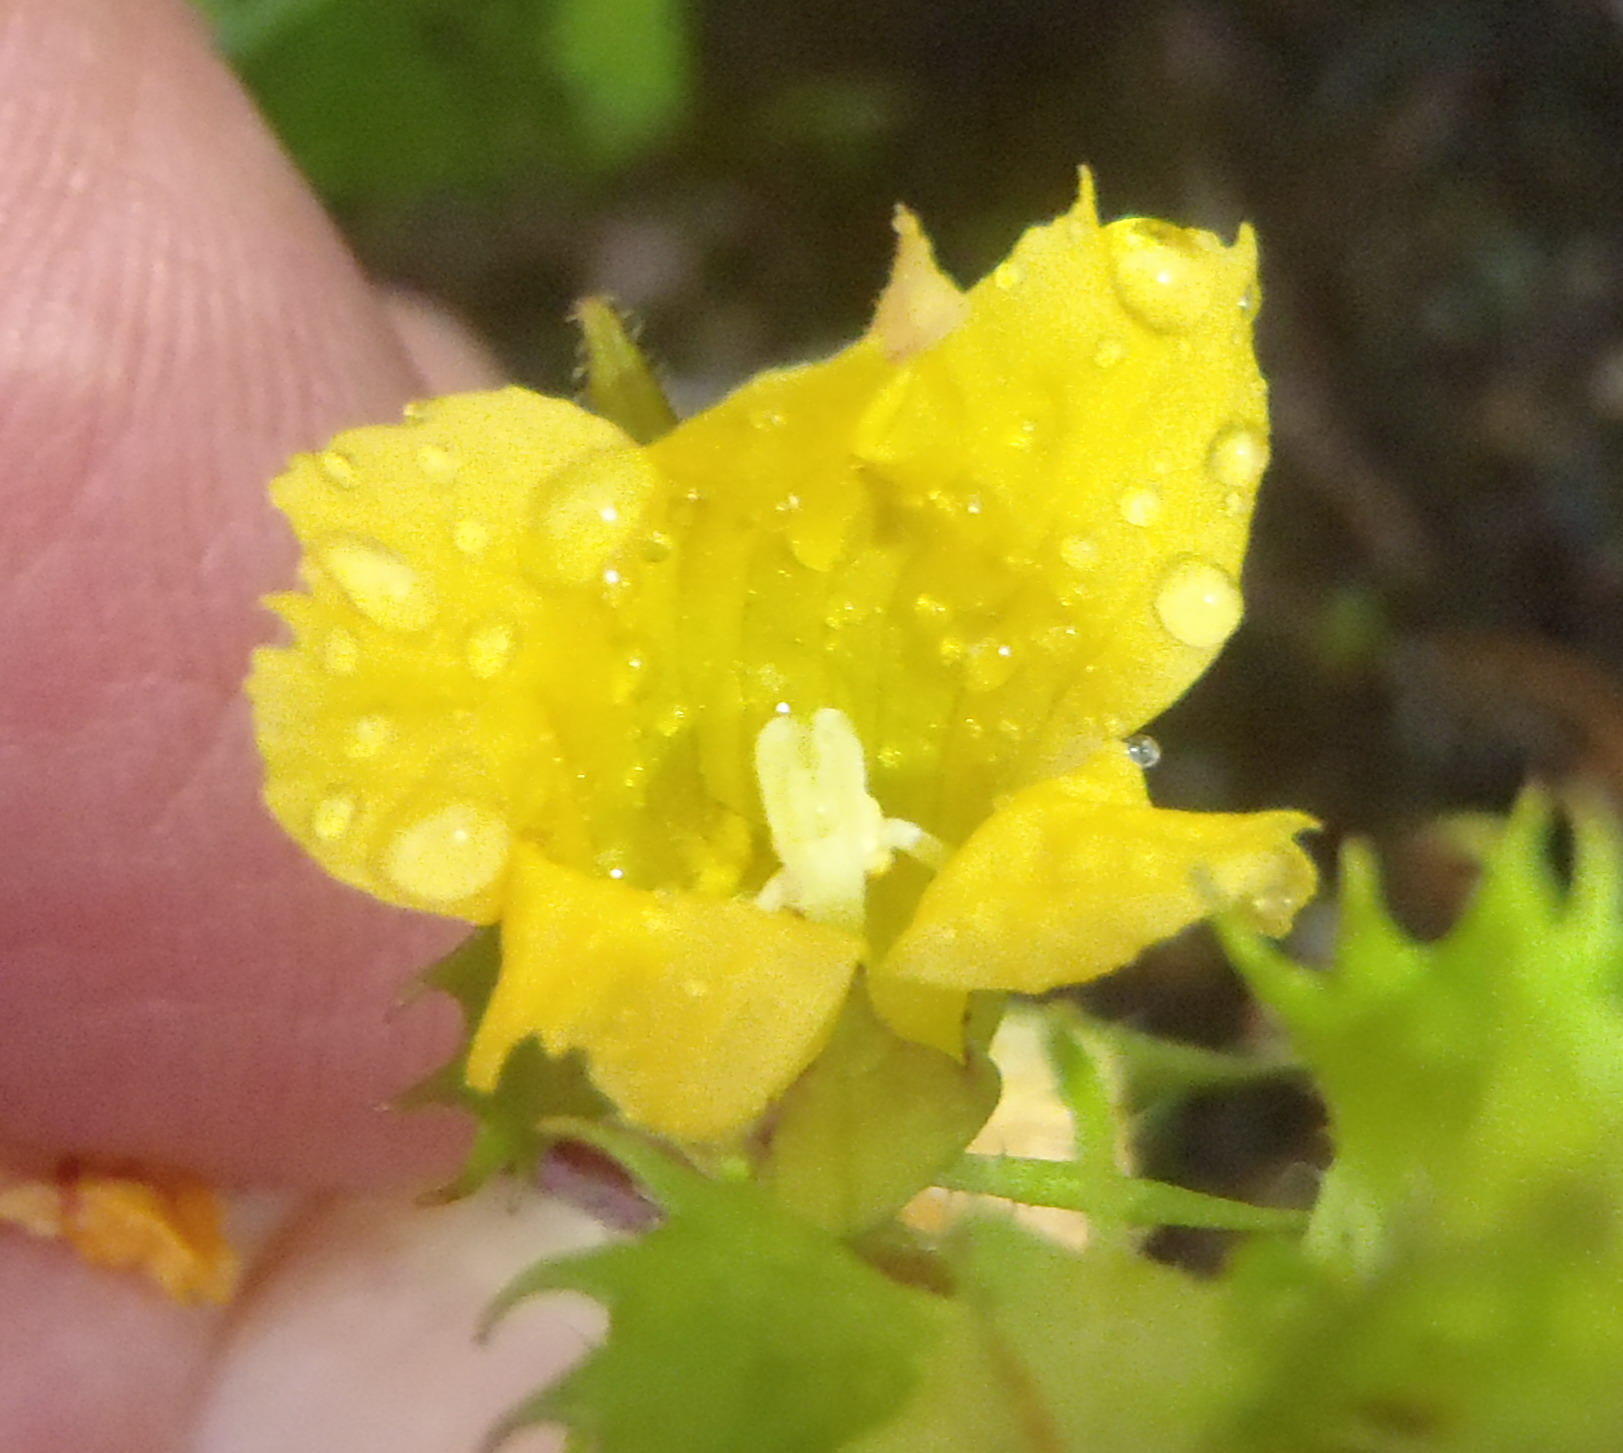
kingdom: Plantae
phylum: Tracheophyta
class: Magnoliopsida
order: Lamiales
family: Orobanchaceae
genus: Alectra
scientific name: Alectra sessiliflora
